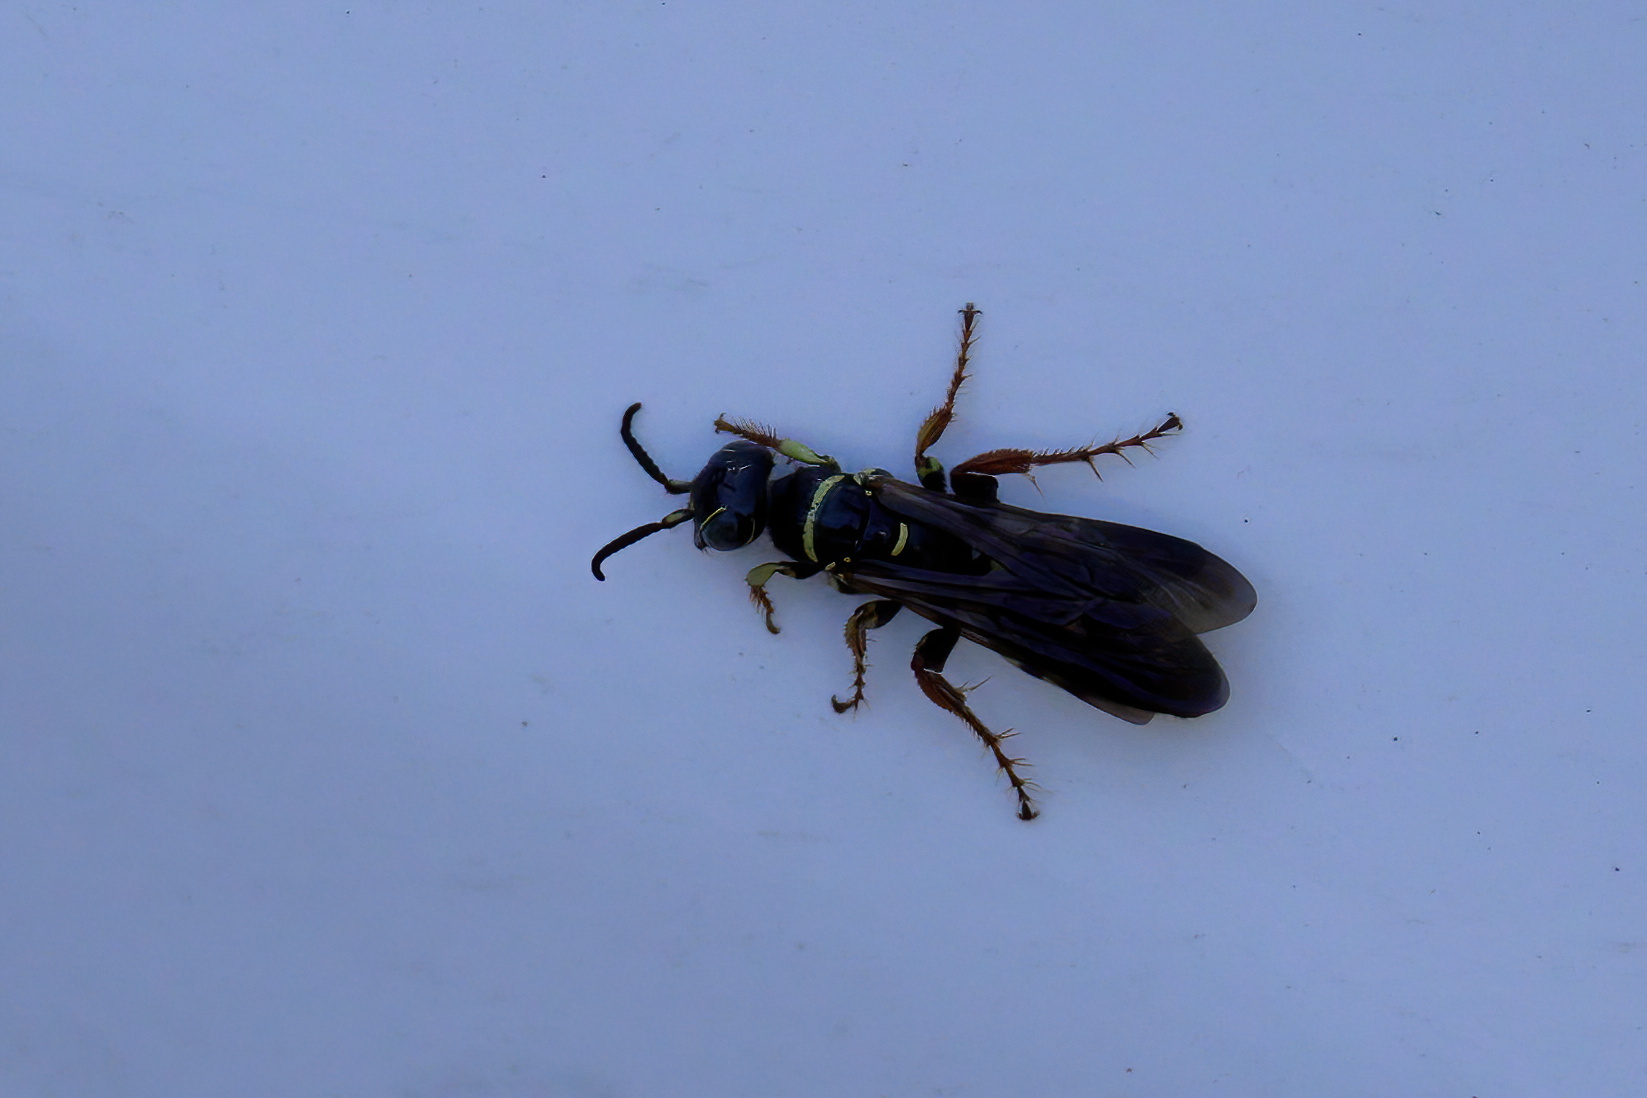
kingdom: Animalia
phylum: Arthropoda
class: Insecta
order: Hymenoptera
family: Tiphiidae
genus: Myzinum
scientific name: Myzinum carolinianum
